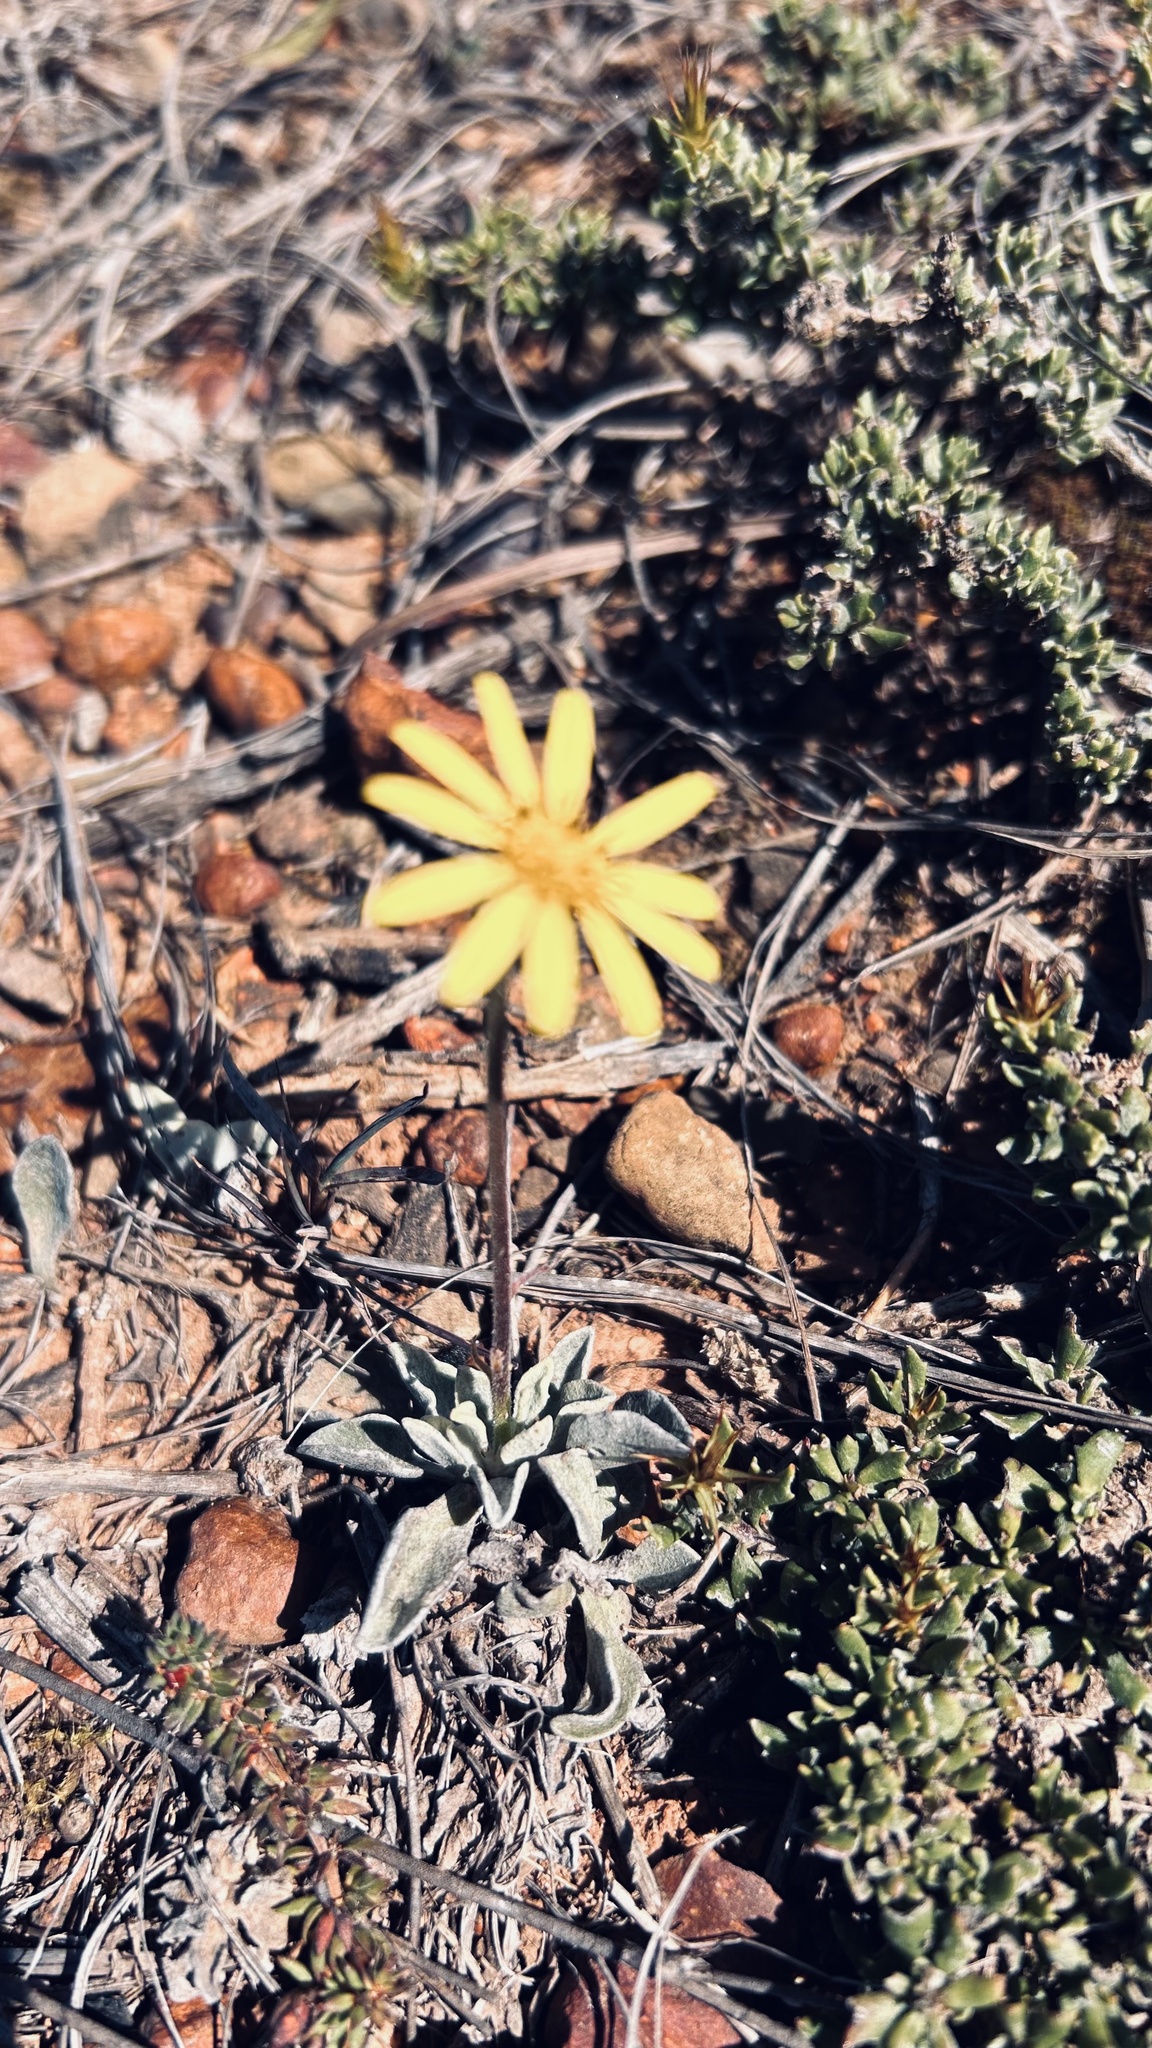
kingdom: Plantae
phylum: Tracheophyta
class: Magnoliopsida
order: Asterales
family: Asteraceae
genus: Osteospermum
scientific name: Osteospermum tomentosum
